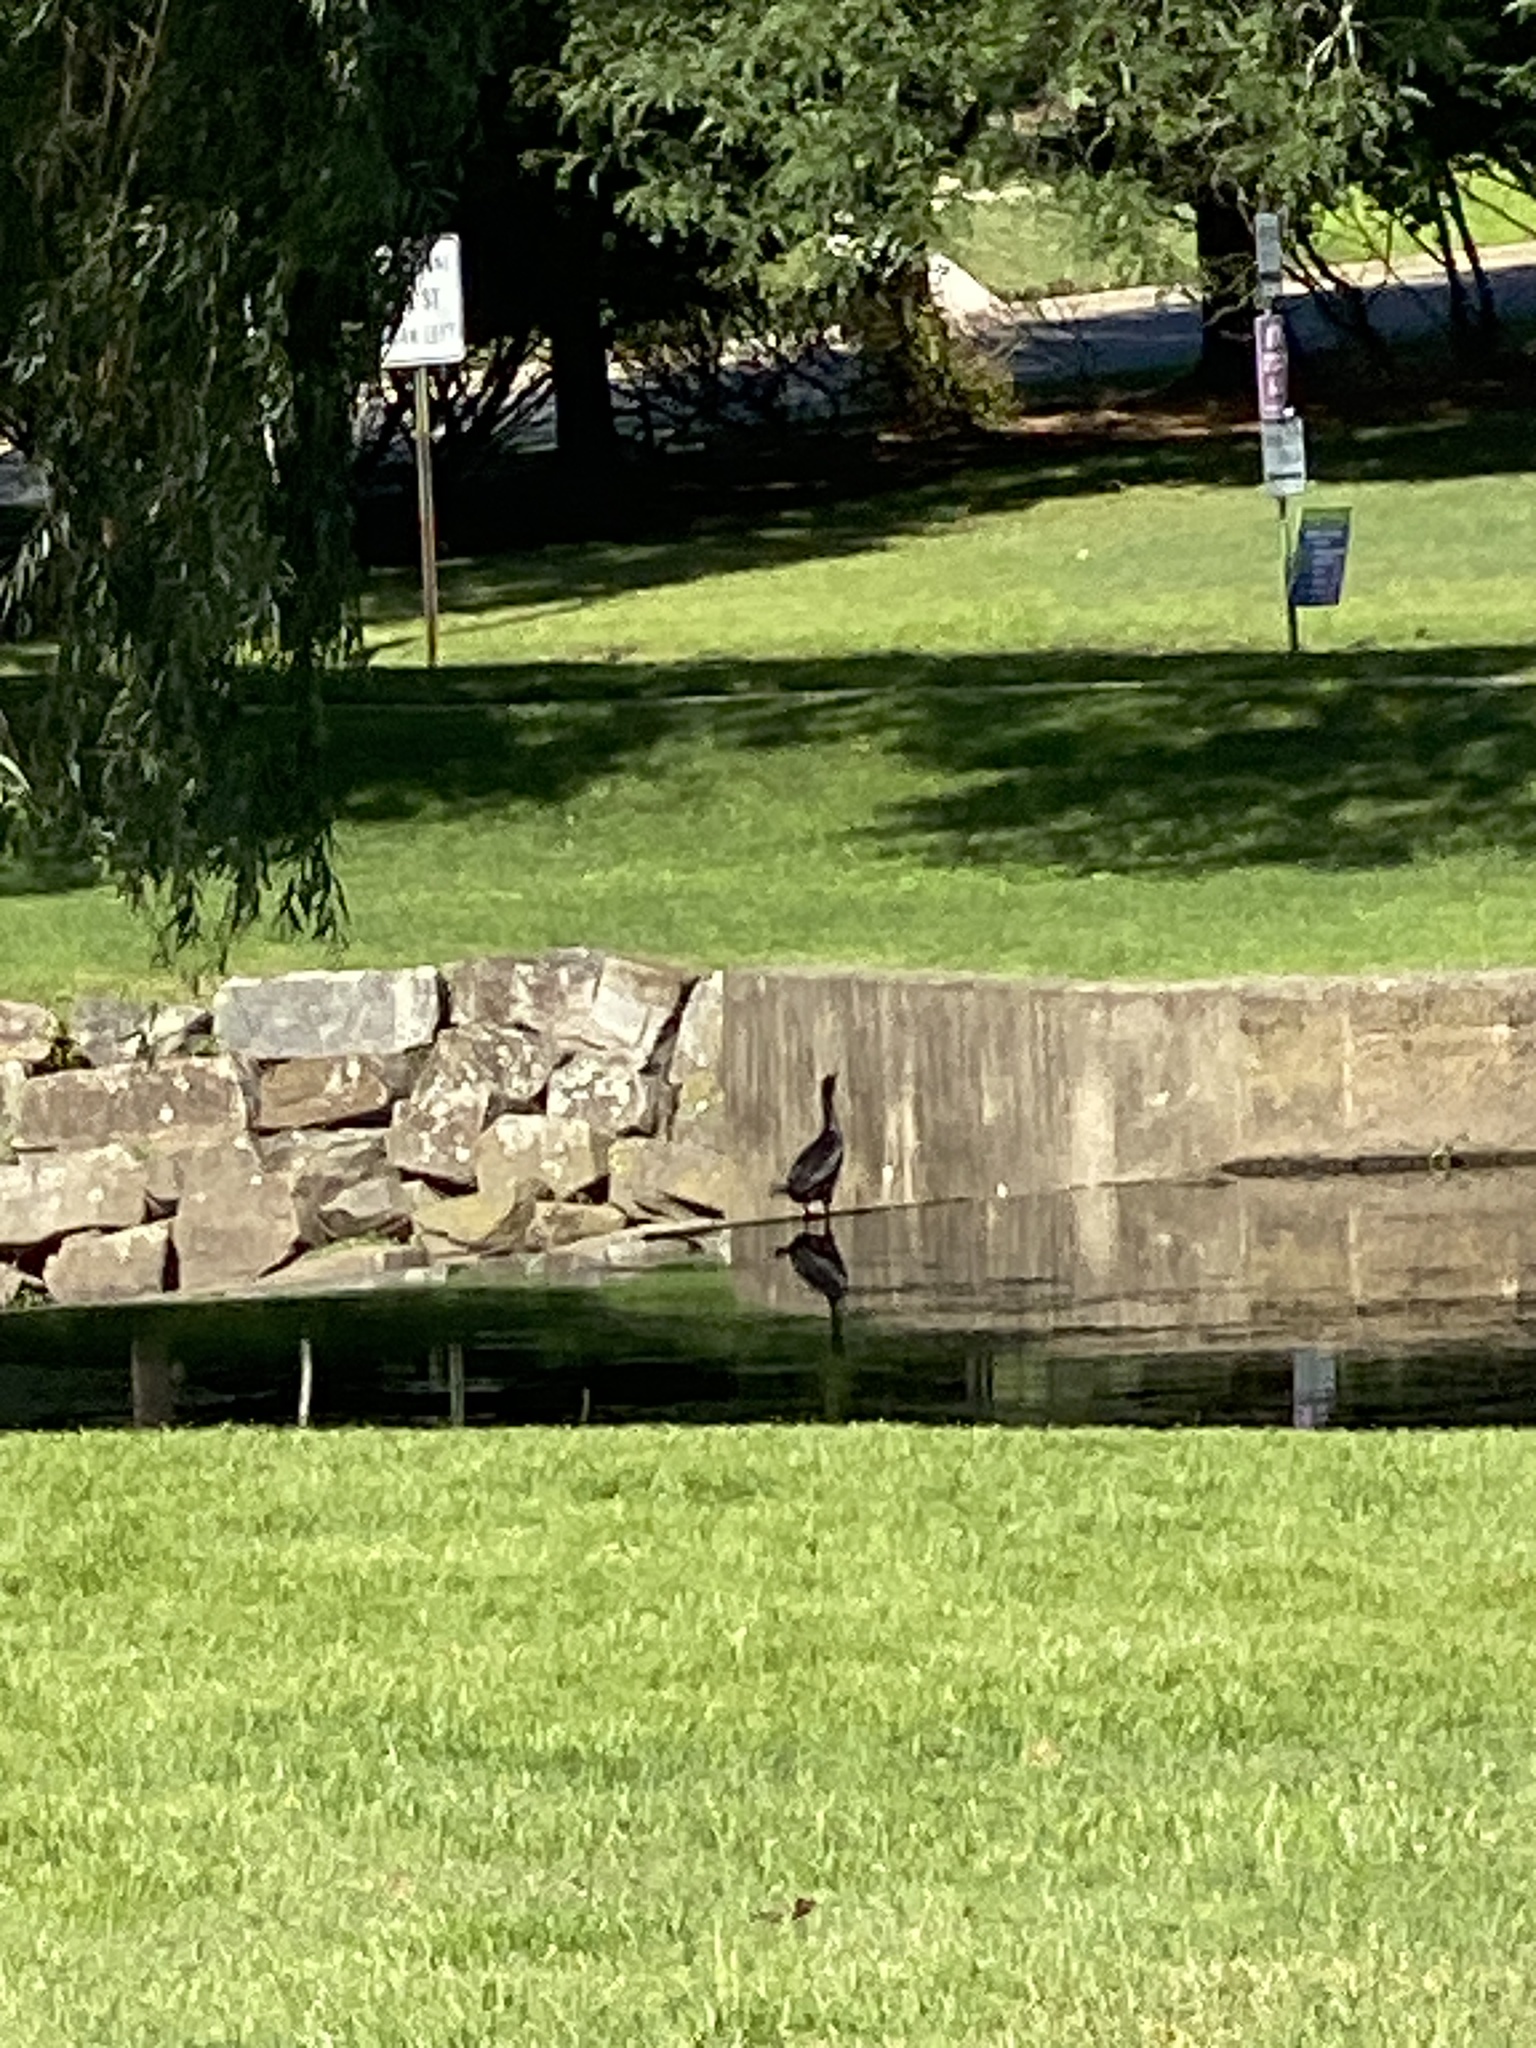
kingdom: Animalia
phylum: Chordata
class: Aves
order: Suliformes
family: Phalacrocoracidae
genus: Phalacrocorax
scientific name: Phalacrocorax auritus
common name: Double-crested cormorant
